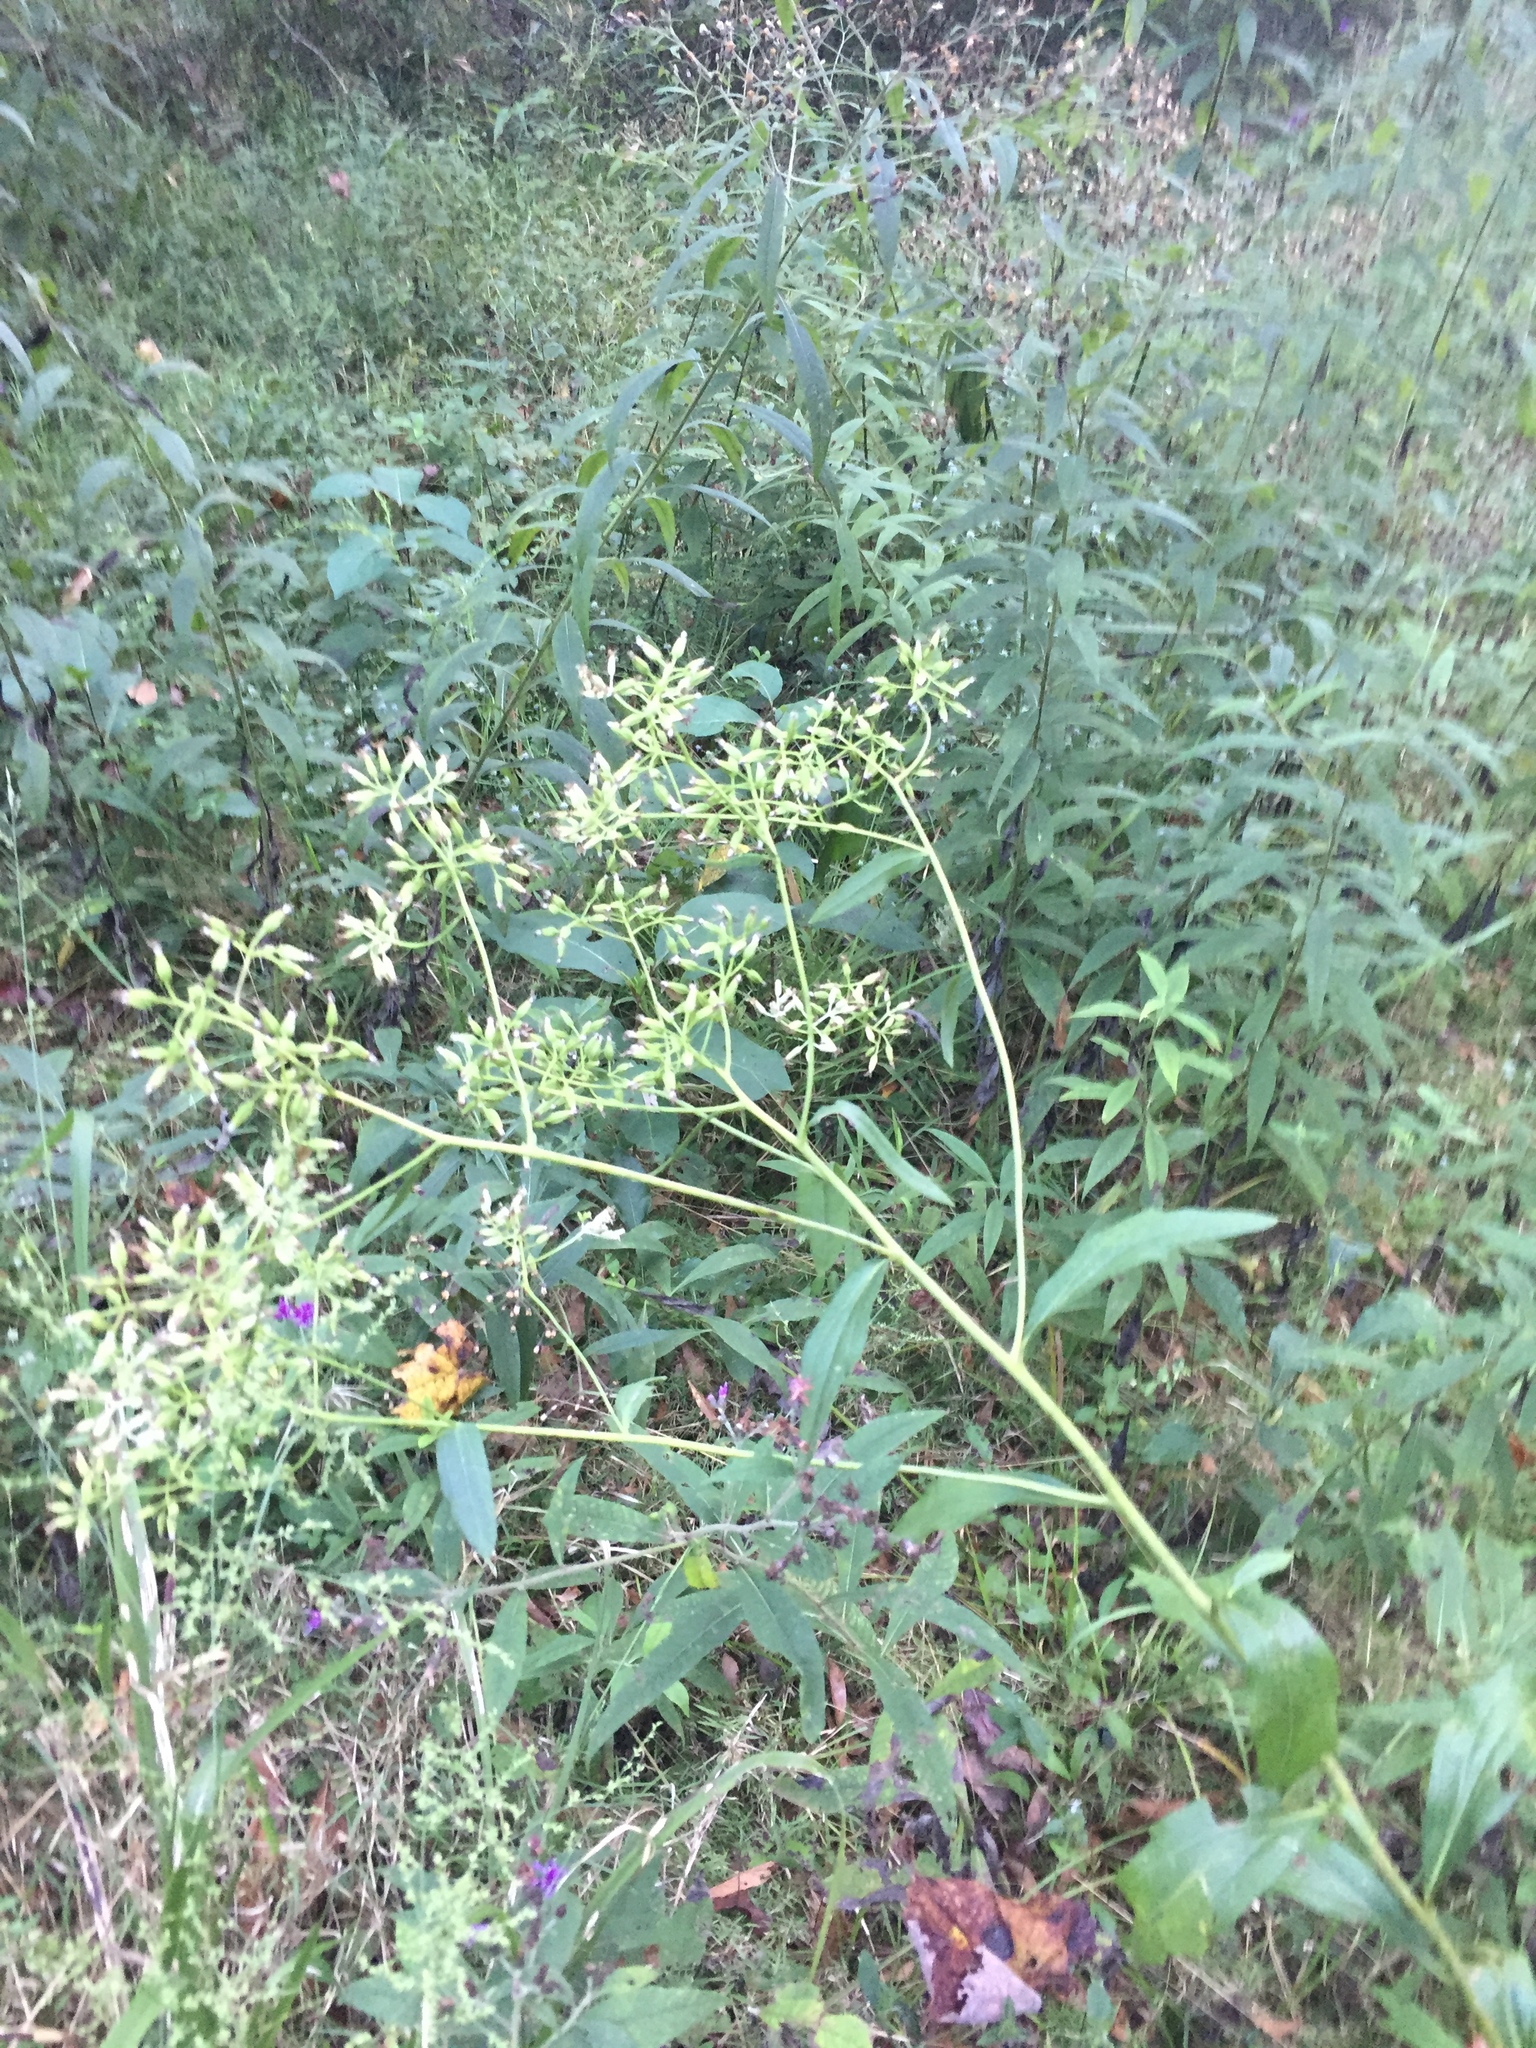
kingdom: Plantae
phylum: Tracheophyta
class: Magnoliopsida
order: Asterales
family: Asteraceae
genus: Arnoglossum
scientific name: Arnoglossum ovatum
